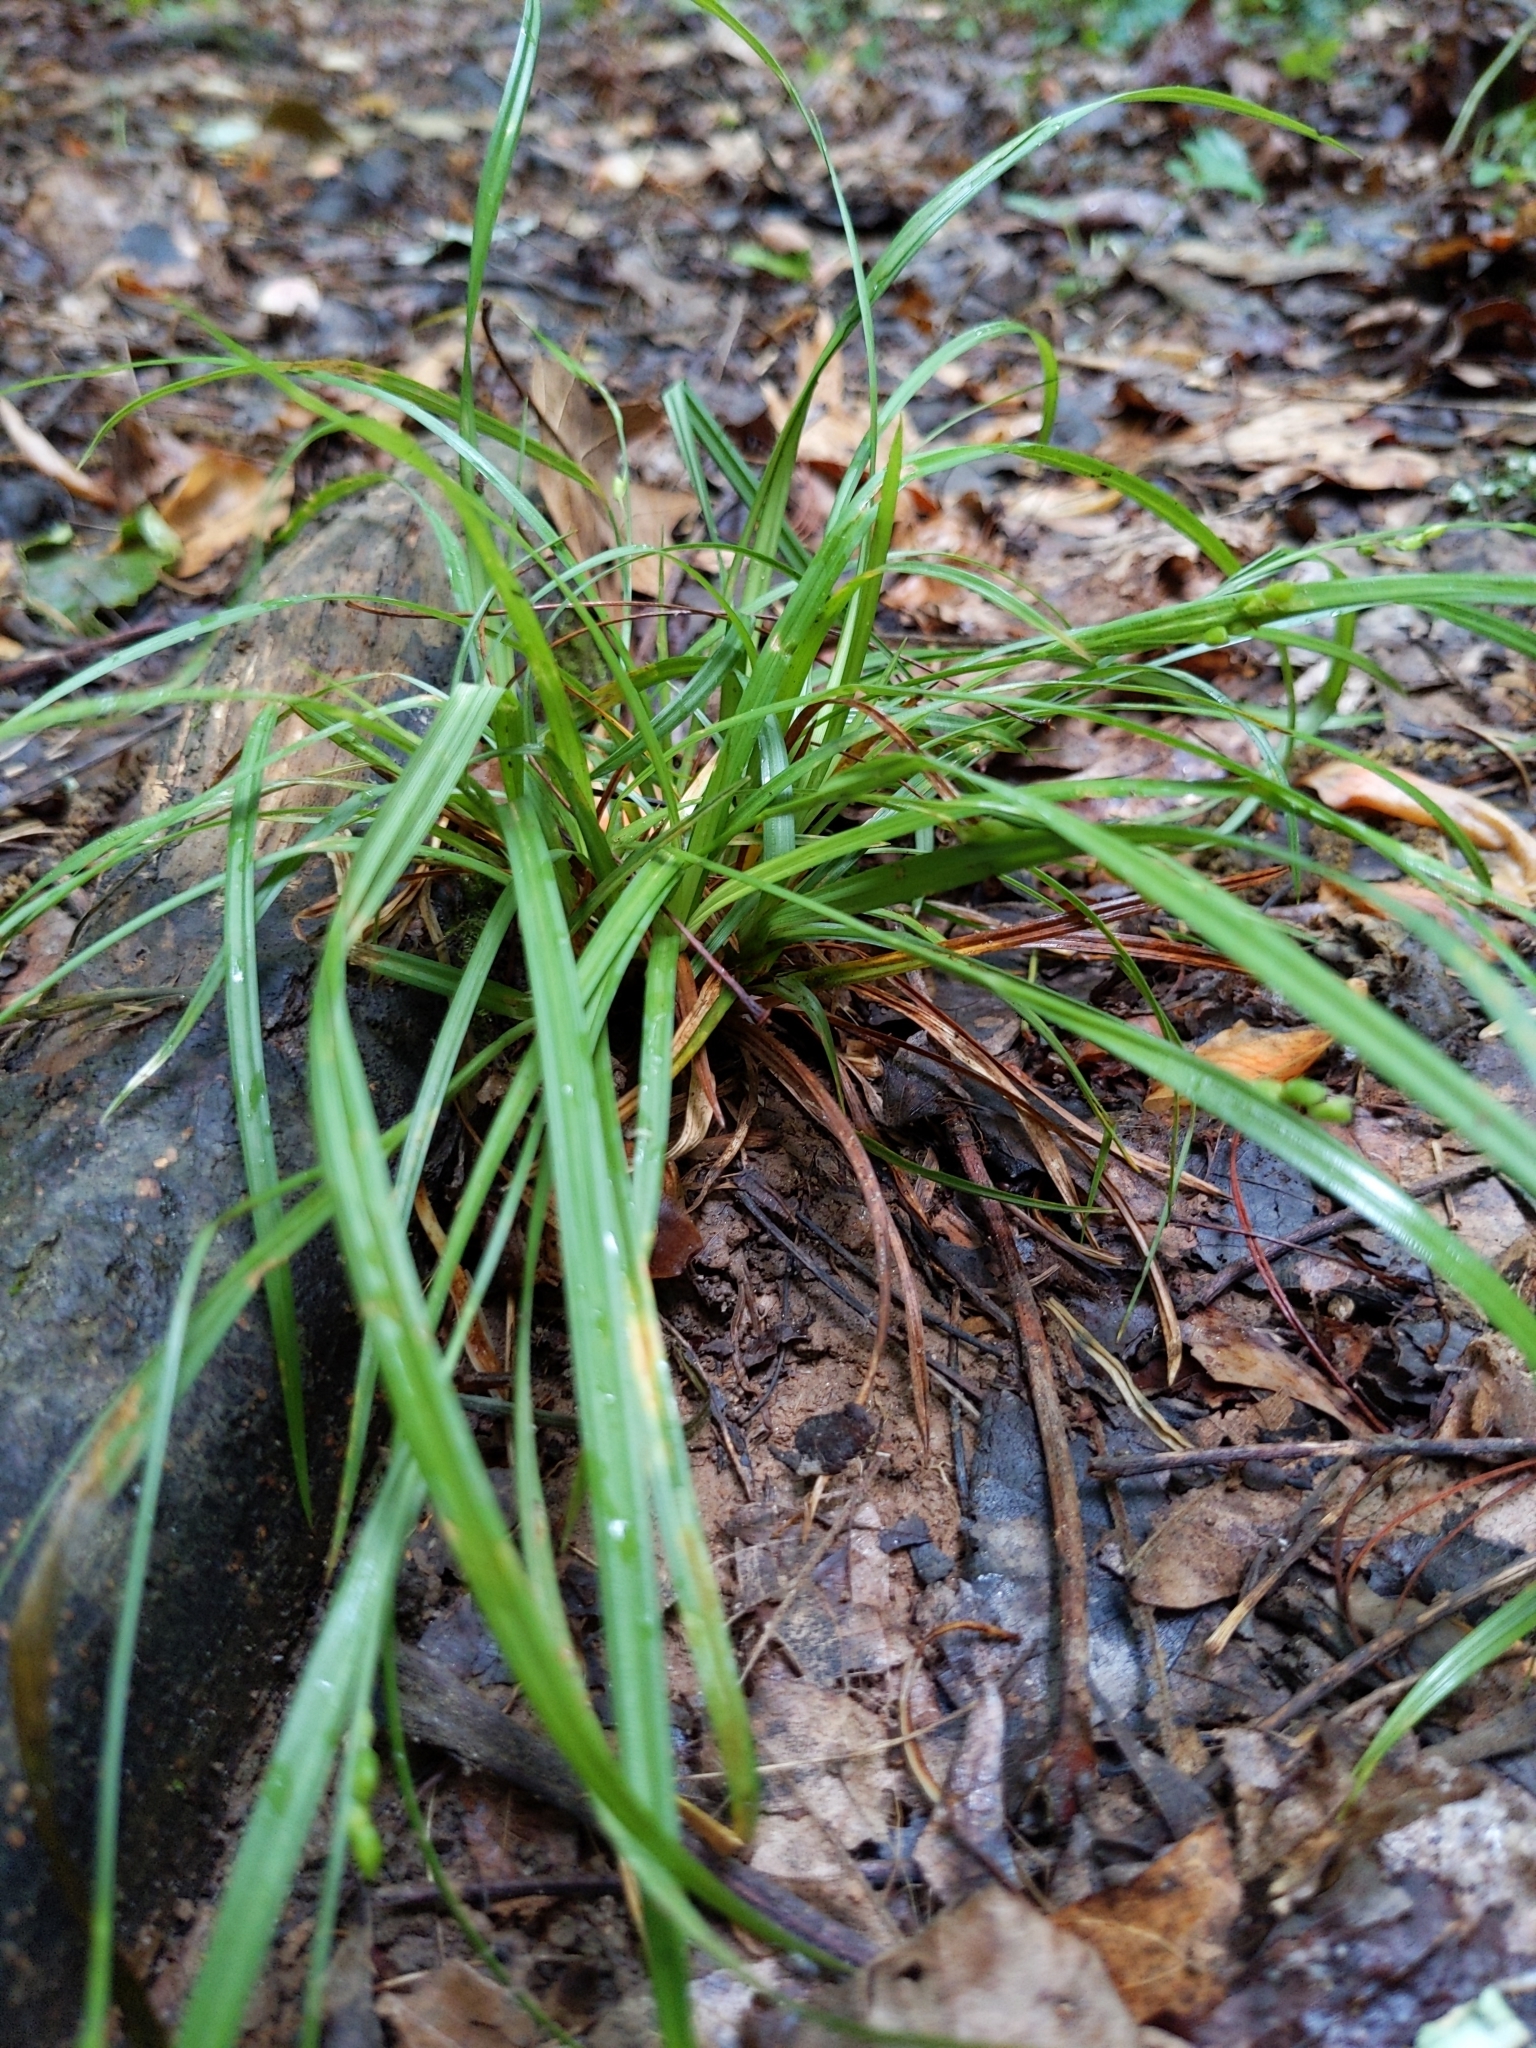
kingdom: Plantae
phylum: Tracheophyta
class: Liliopsida
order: Poales
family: Cyperaceae
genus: Carex
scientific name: Carex
